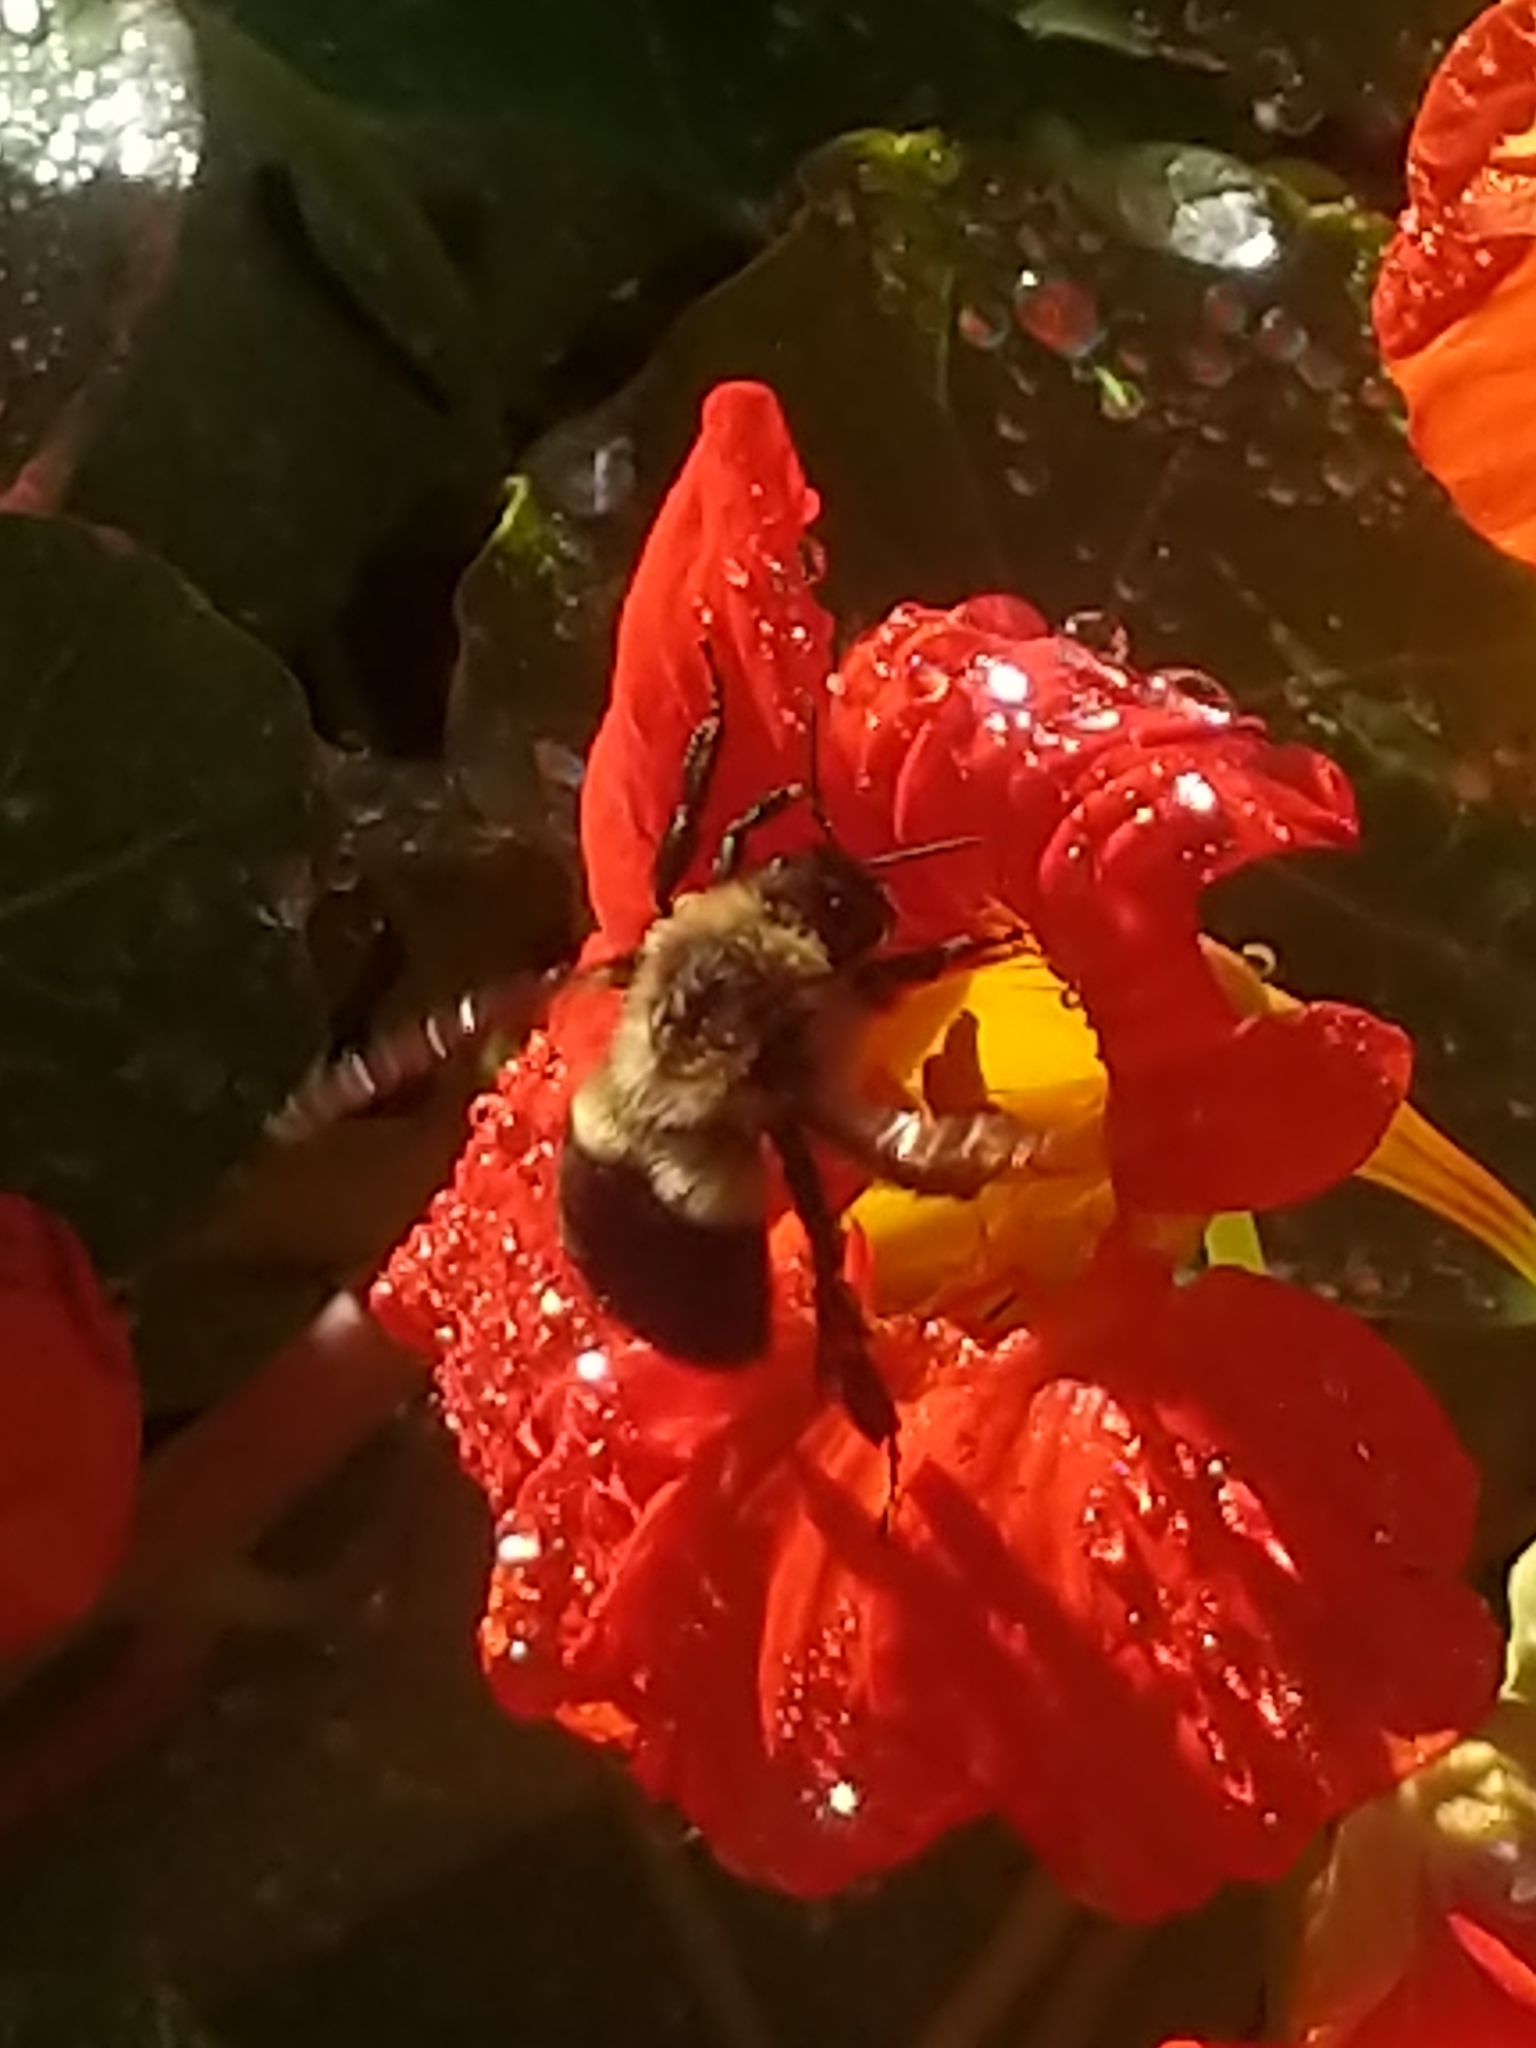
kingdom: Animalia
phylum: Arthropoda
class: Insecta
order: Hymenoptera
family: Apidae
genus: Bombus
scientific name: Bombus impatiens
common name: Common eastern bumble bee
